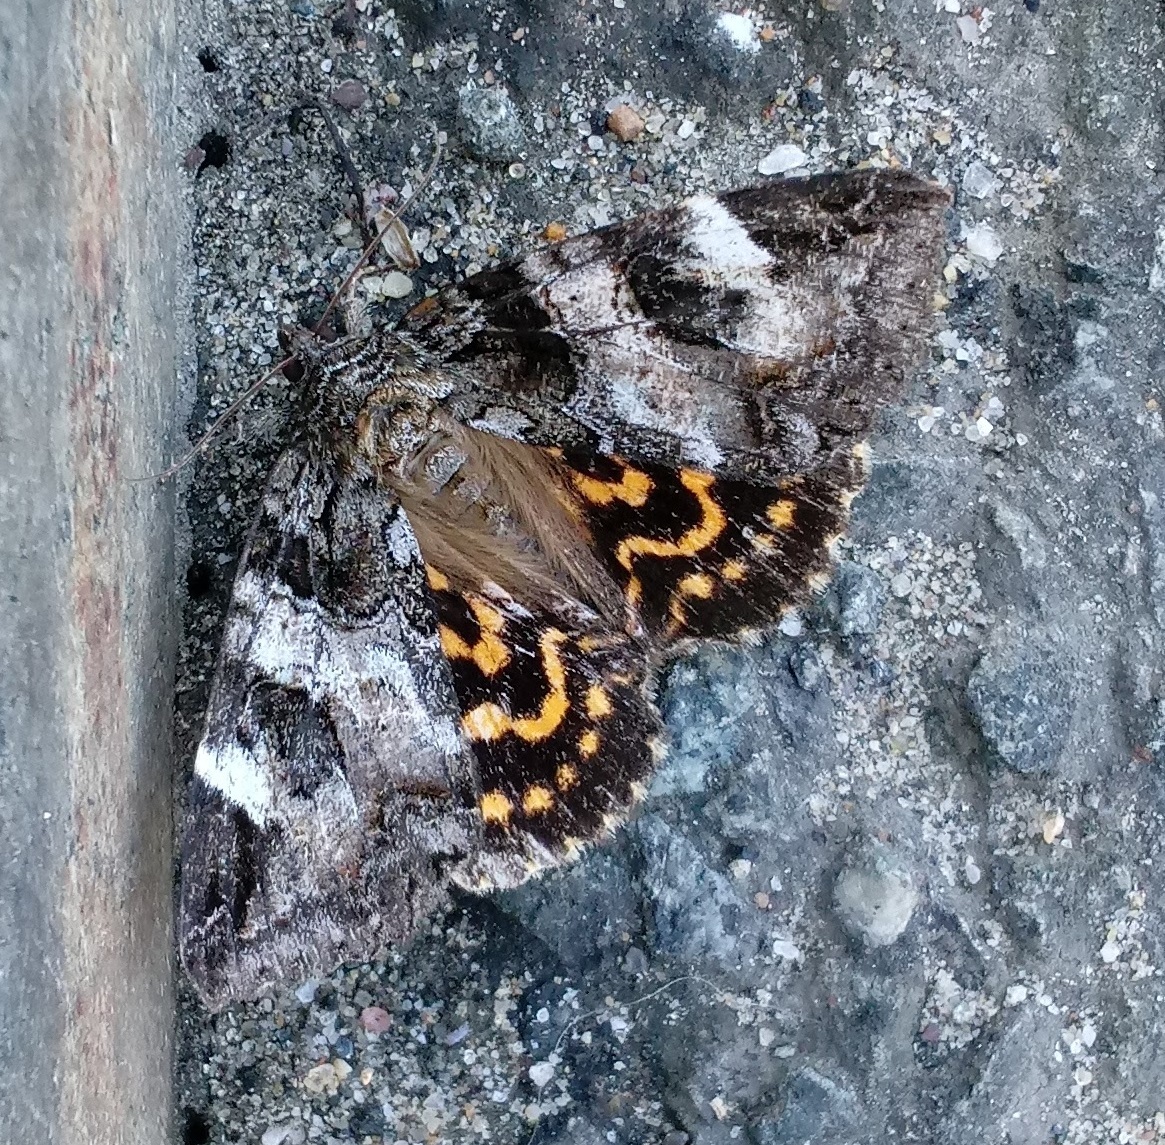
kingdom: Animalia
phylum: Arthropoda
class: Insecta
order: Lepidoptera
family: Erebidae
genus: Euparthenos
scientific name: Euparthenos nubilis
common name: Locust underwing
